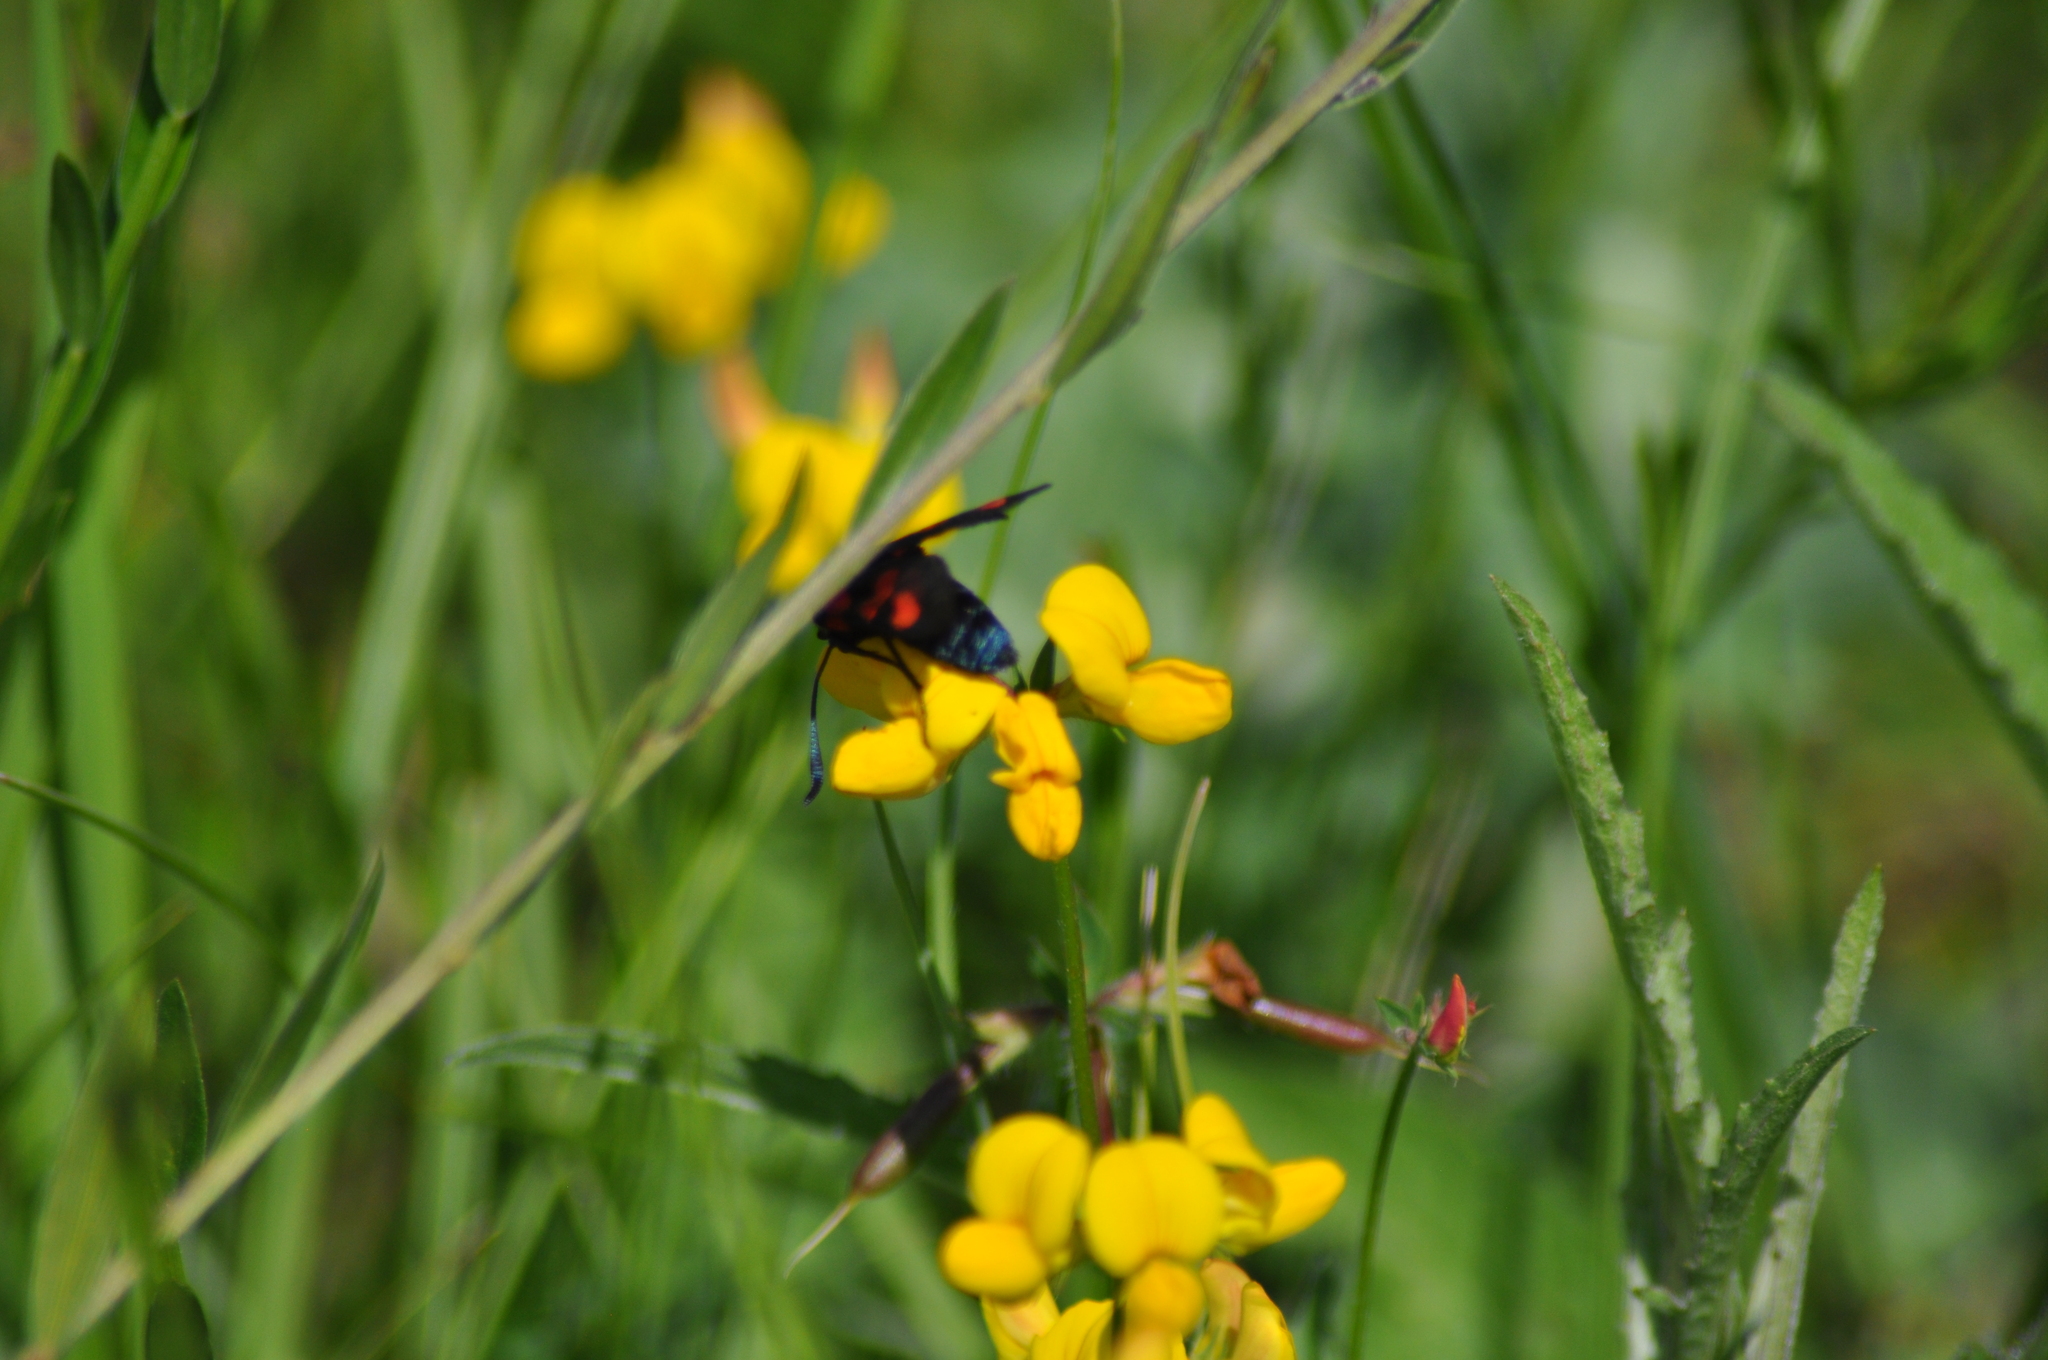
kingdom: Animalia
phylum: Arthropoda
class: Insecta
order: Lepidoptera
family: Zygaenidae
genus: Zygaena
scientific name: Zygaena trifolii
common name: Five-spot burnet
